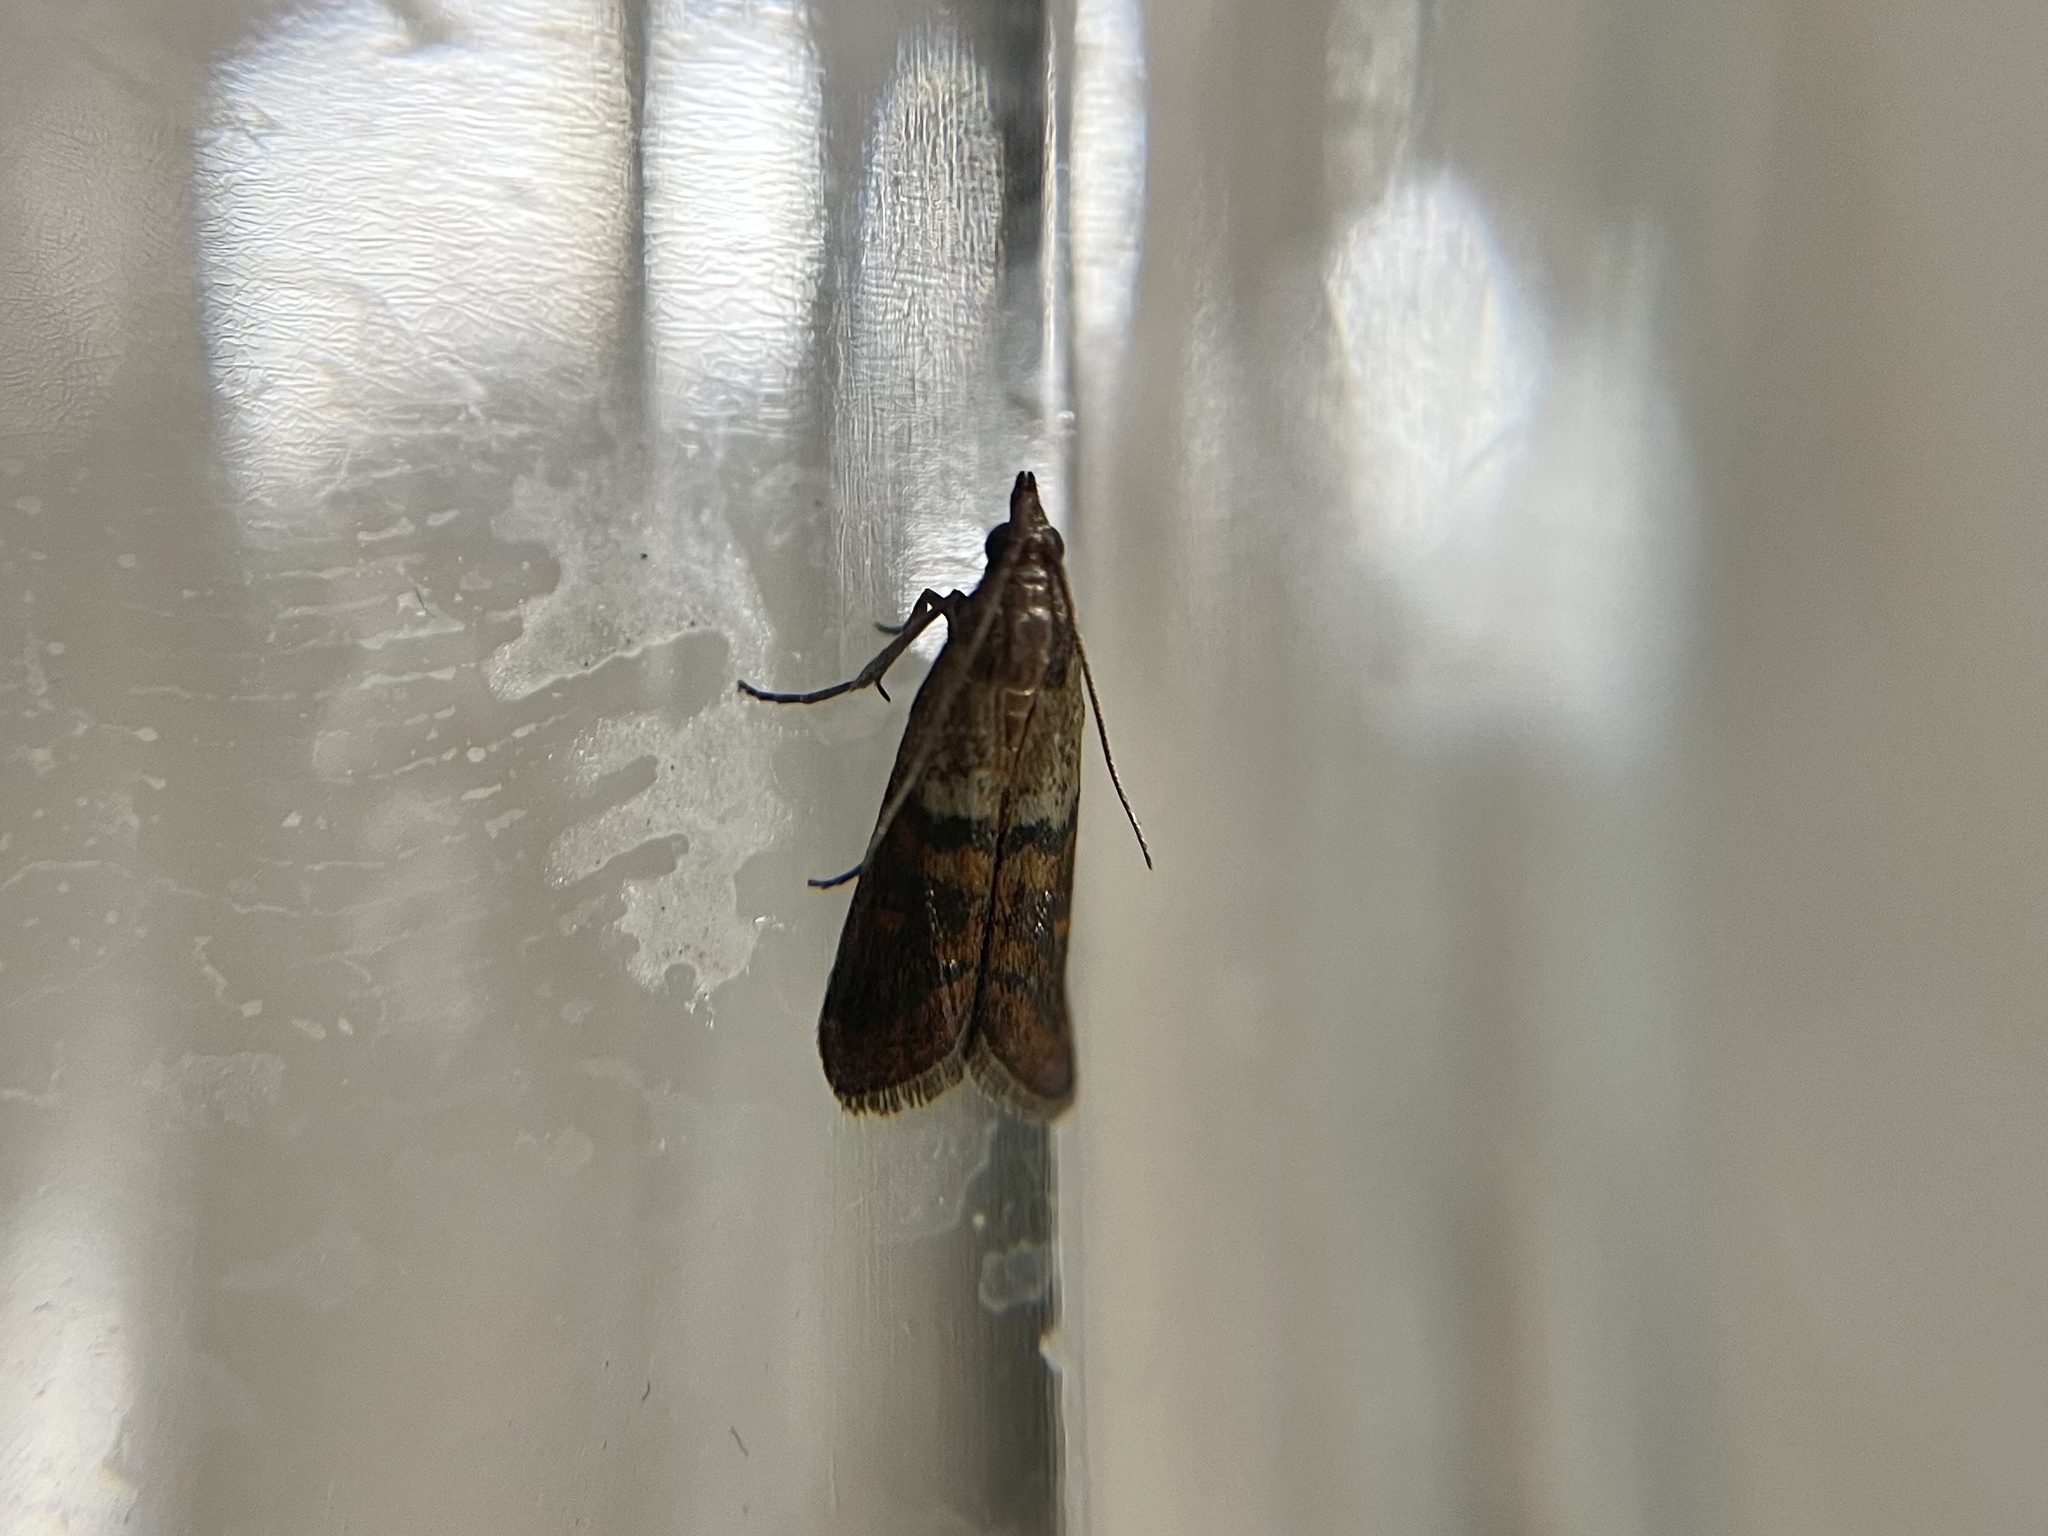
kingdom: Animalia
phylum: Arthropoda
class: Insecta
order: Lepidoptera
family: Pyralidae
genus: Plodia
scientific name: Plodia interpunctella
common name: Indian meal moth
